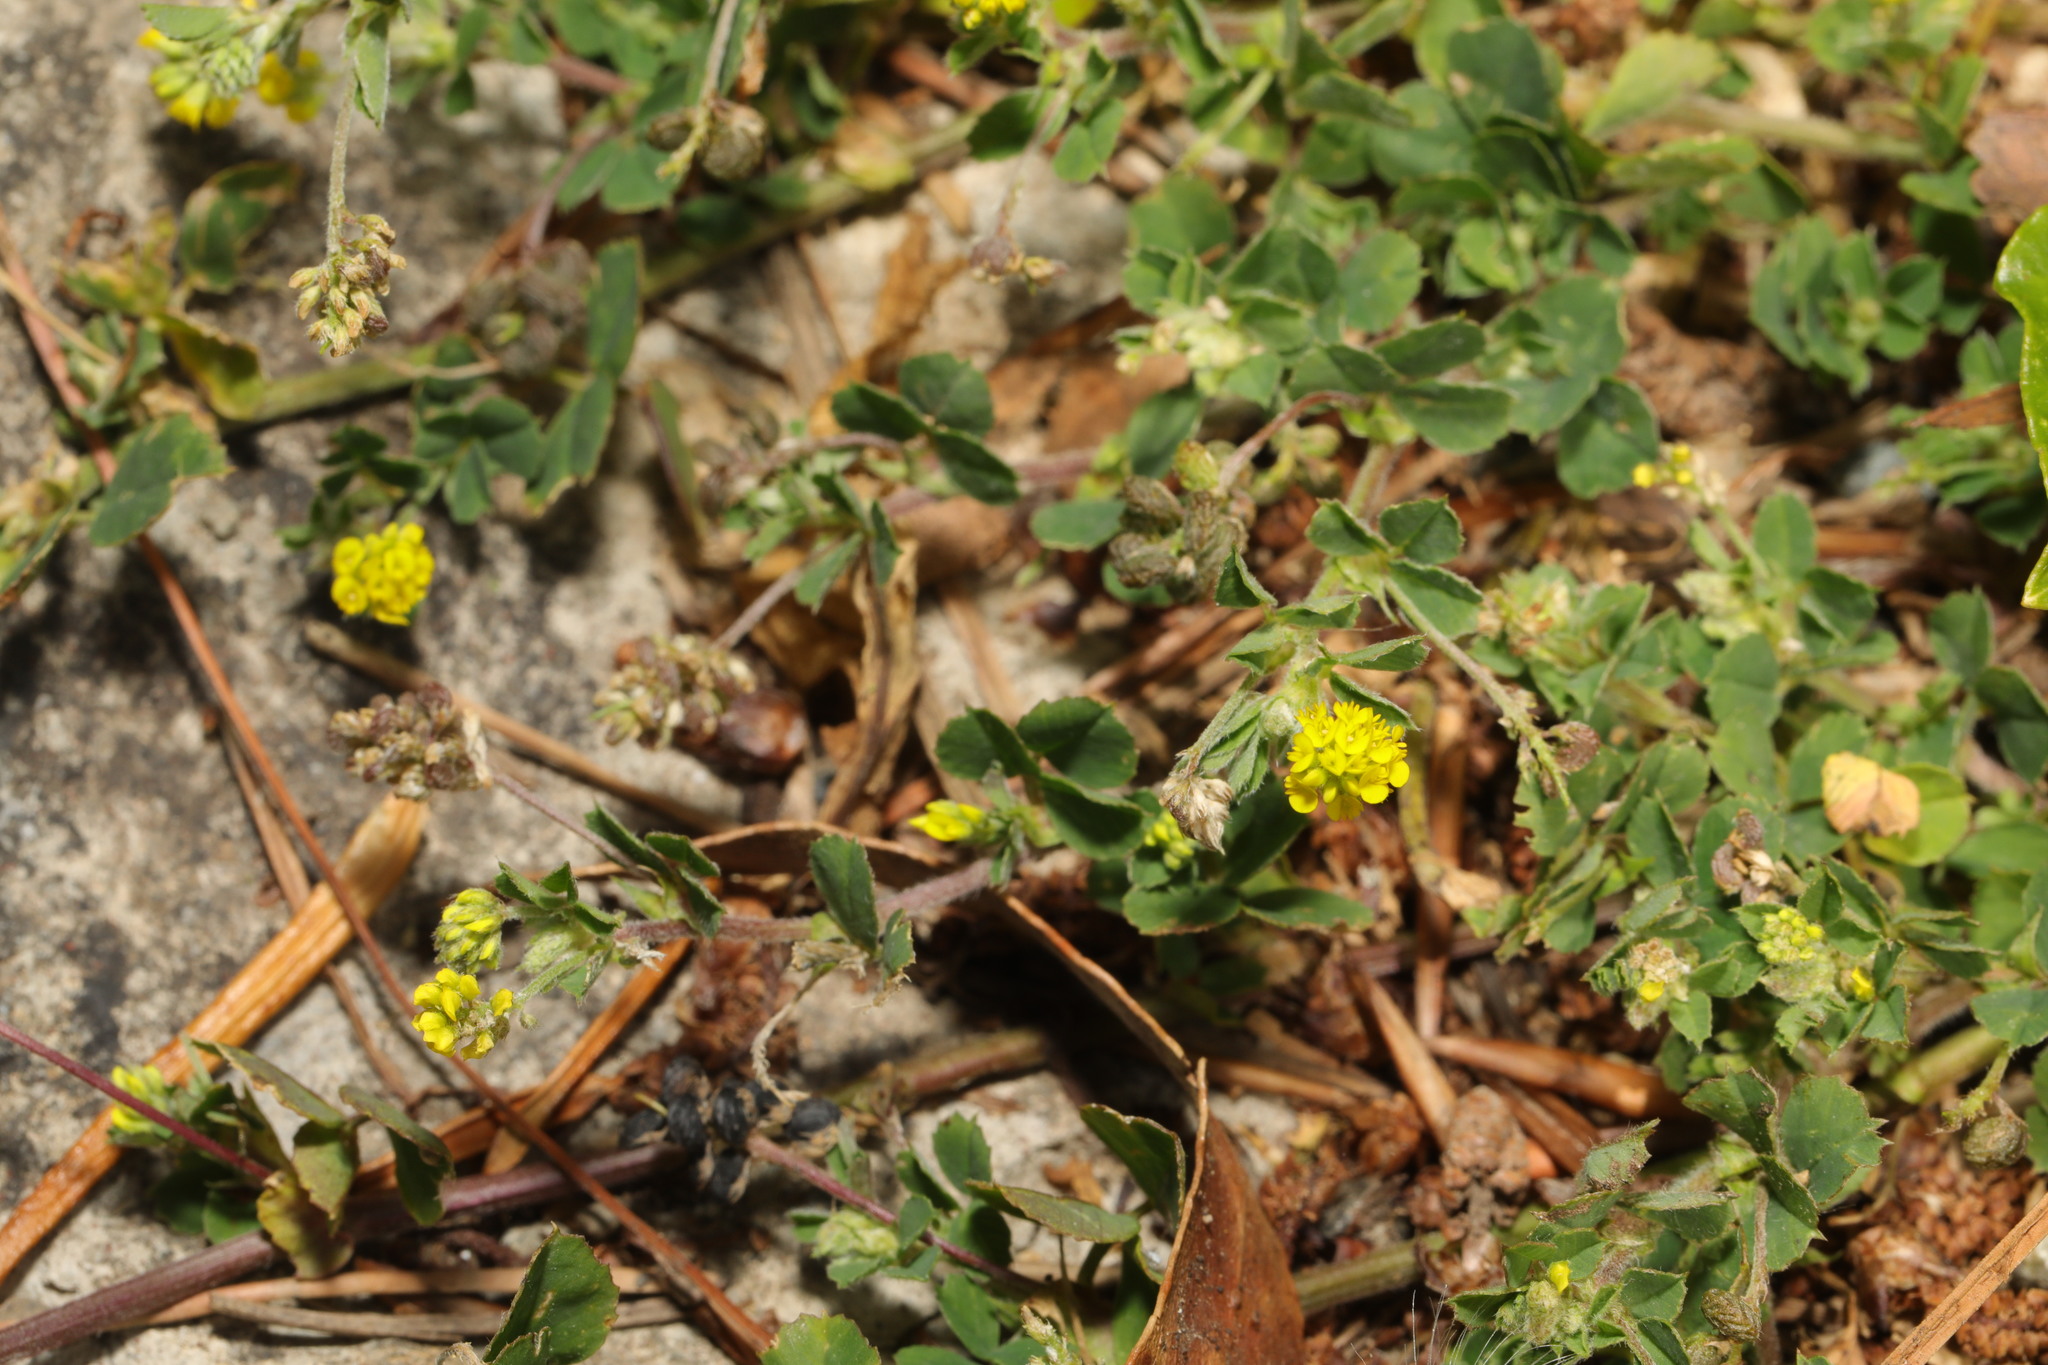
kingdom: Plantae
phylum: Tracheophyta
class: Magnoliopsida
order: Fabales
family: Fabaceae
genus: Medicago
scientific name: Medicago lupulina
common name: Black medick
